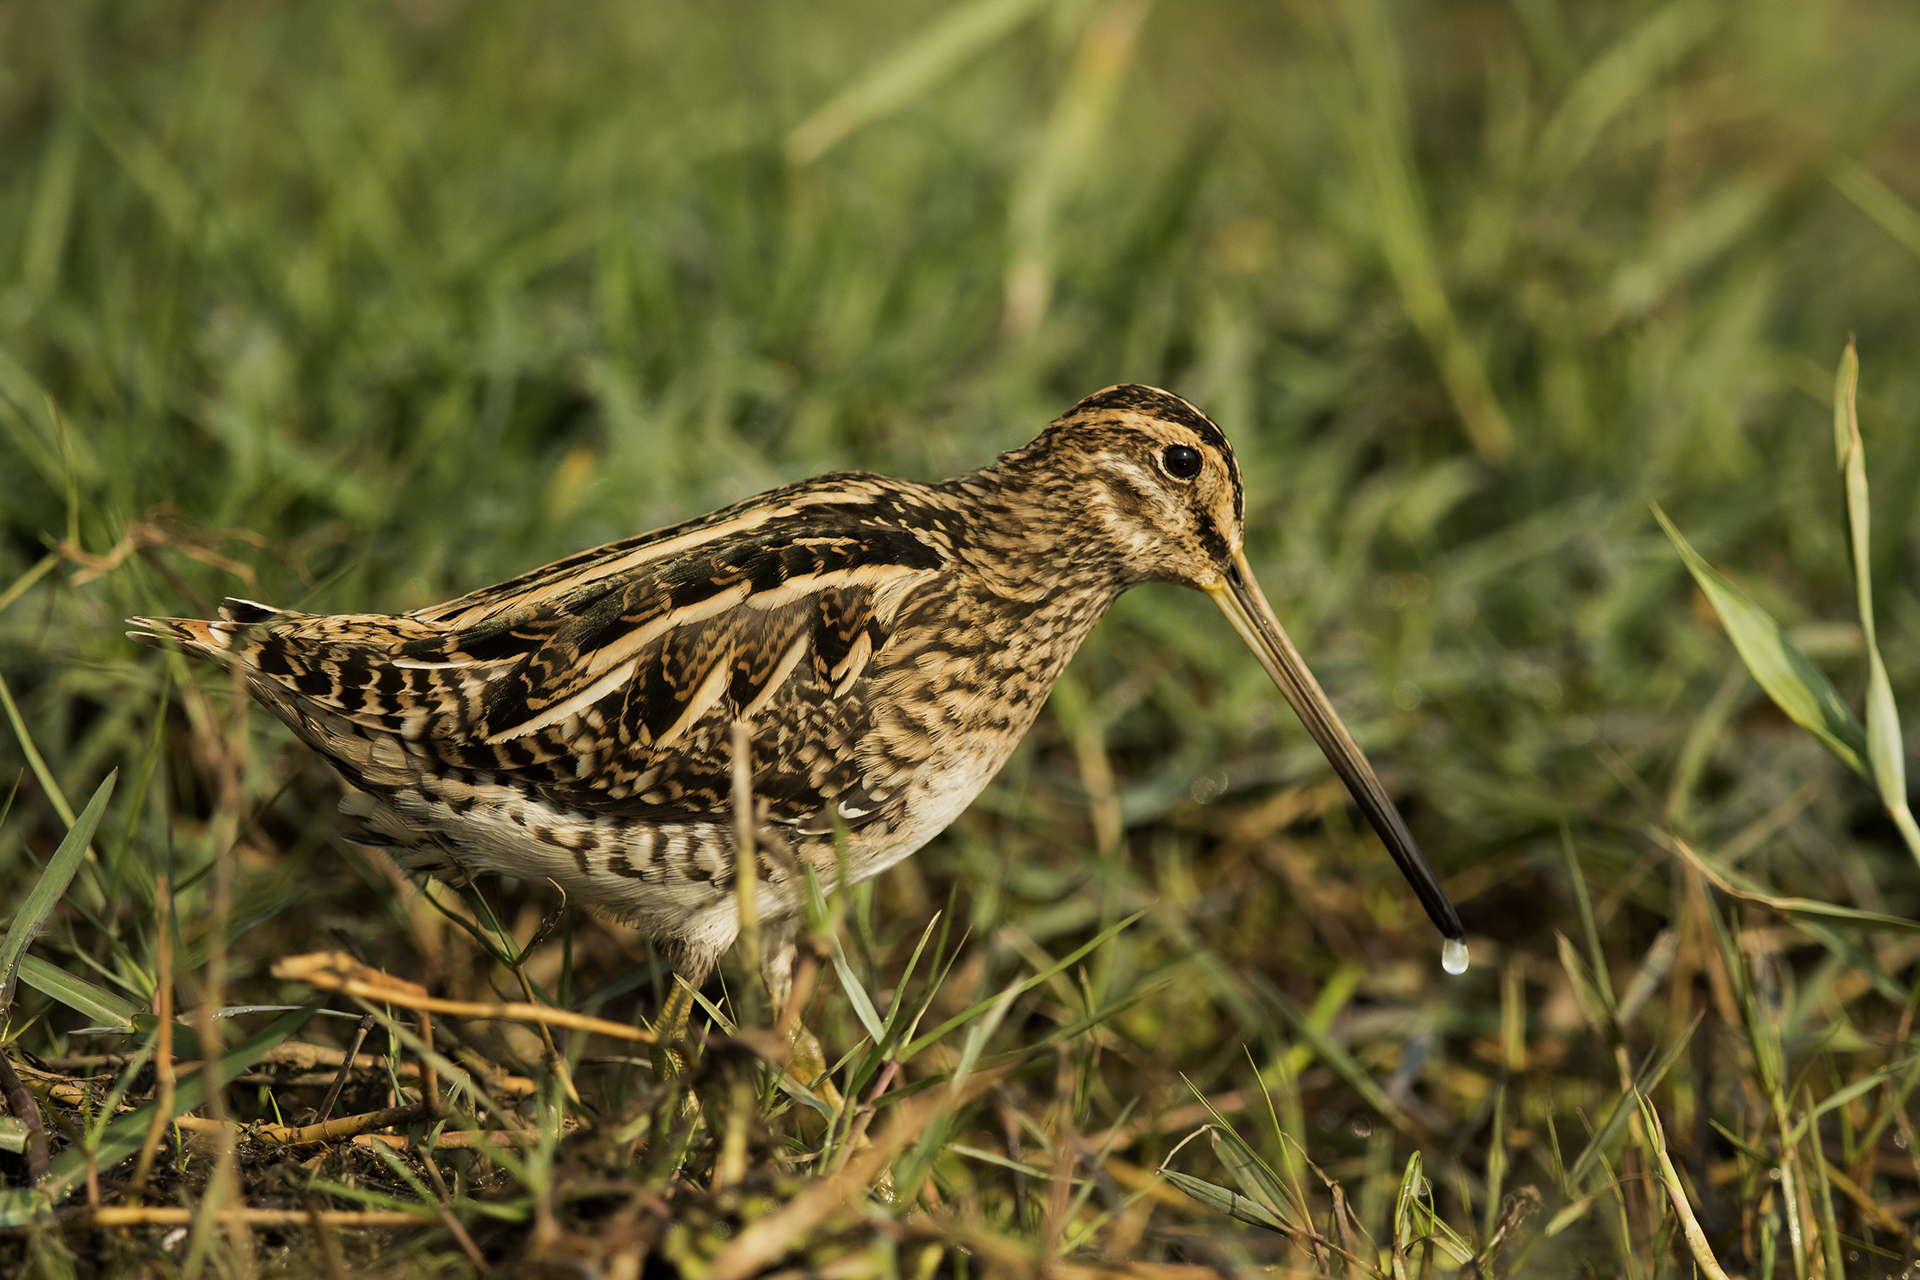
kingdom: Animalia
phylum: Chordata
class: Aves
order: Charadriiformes
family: Scolopacidae
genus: Gallinago
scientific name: Gallinago gallinago
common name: Common snipe
